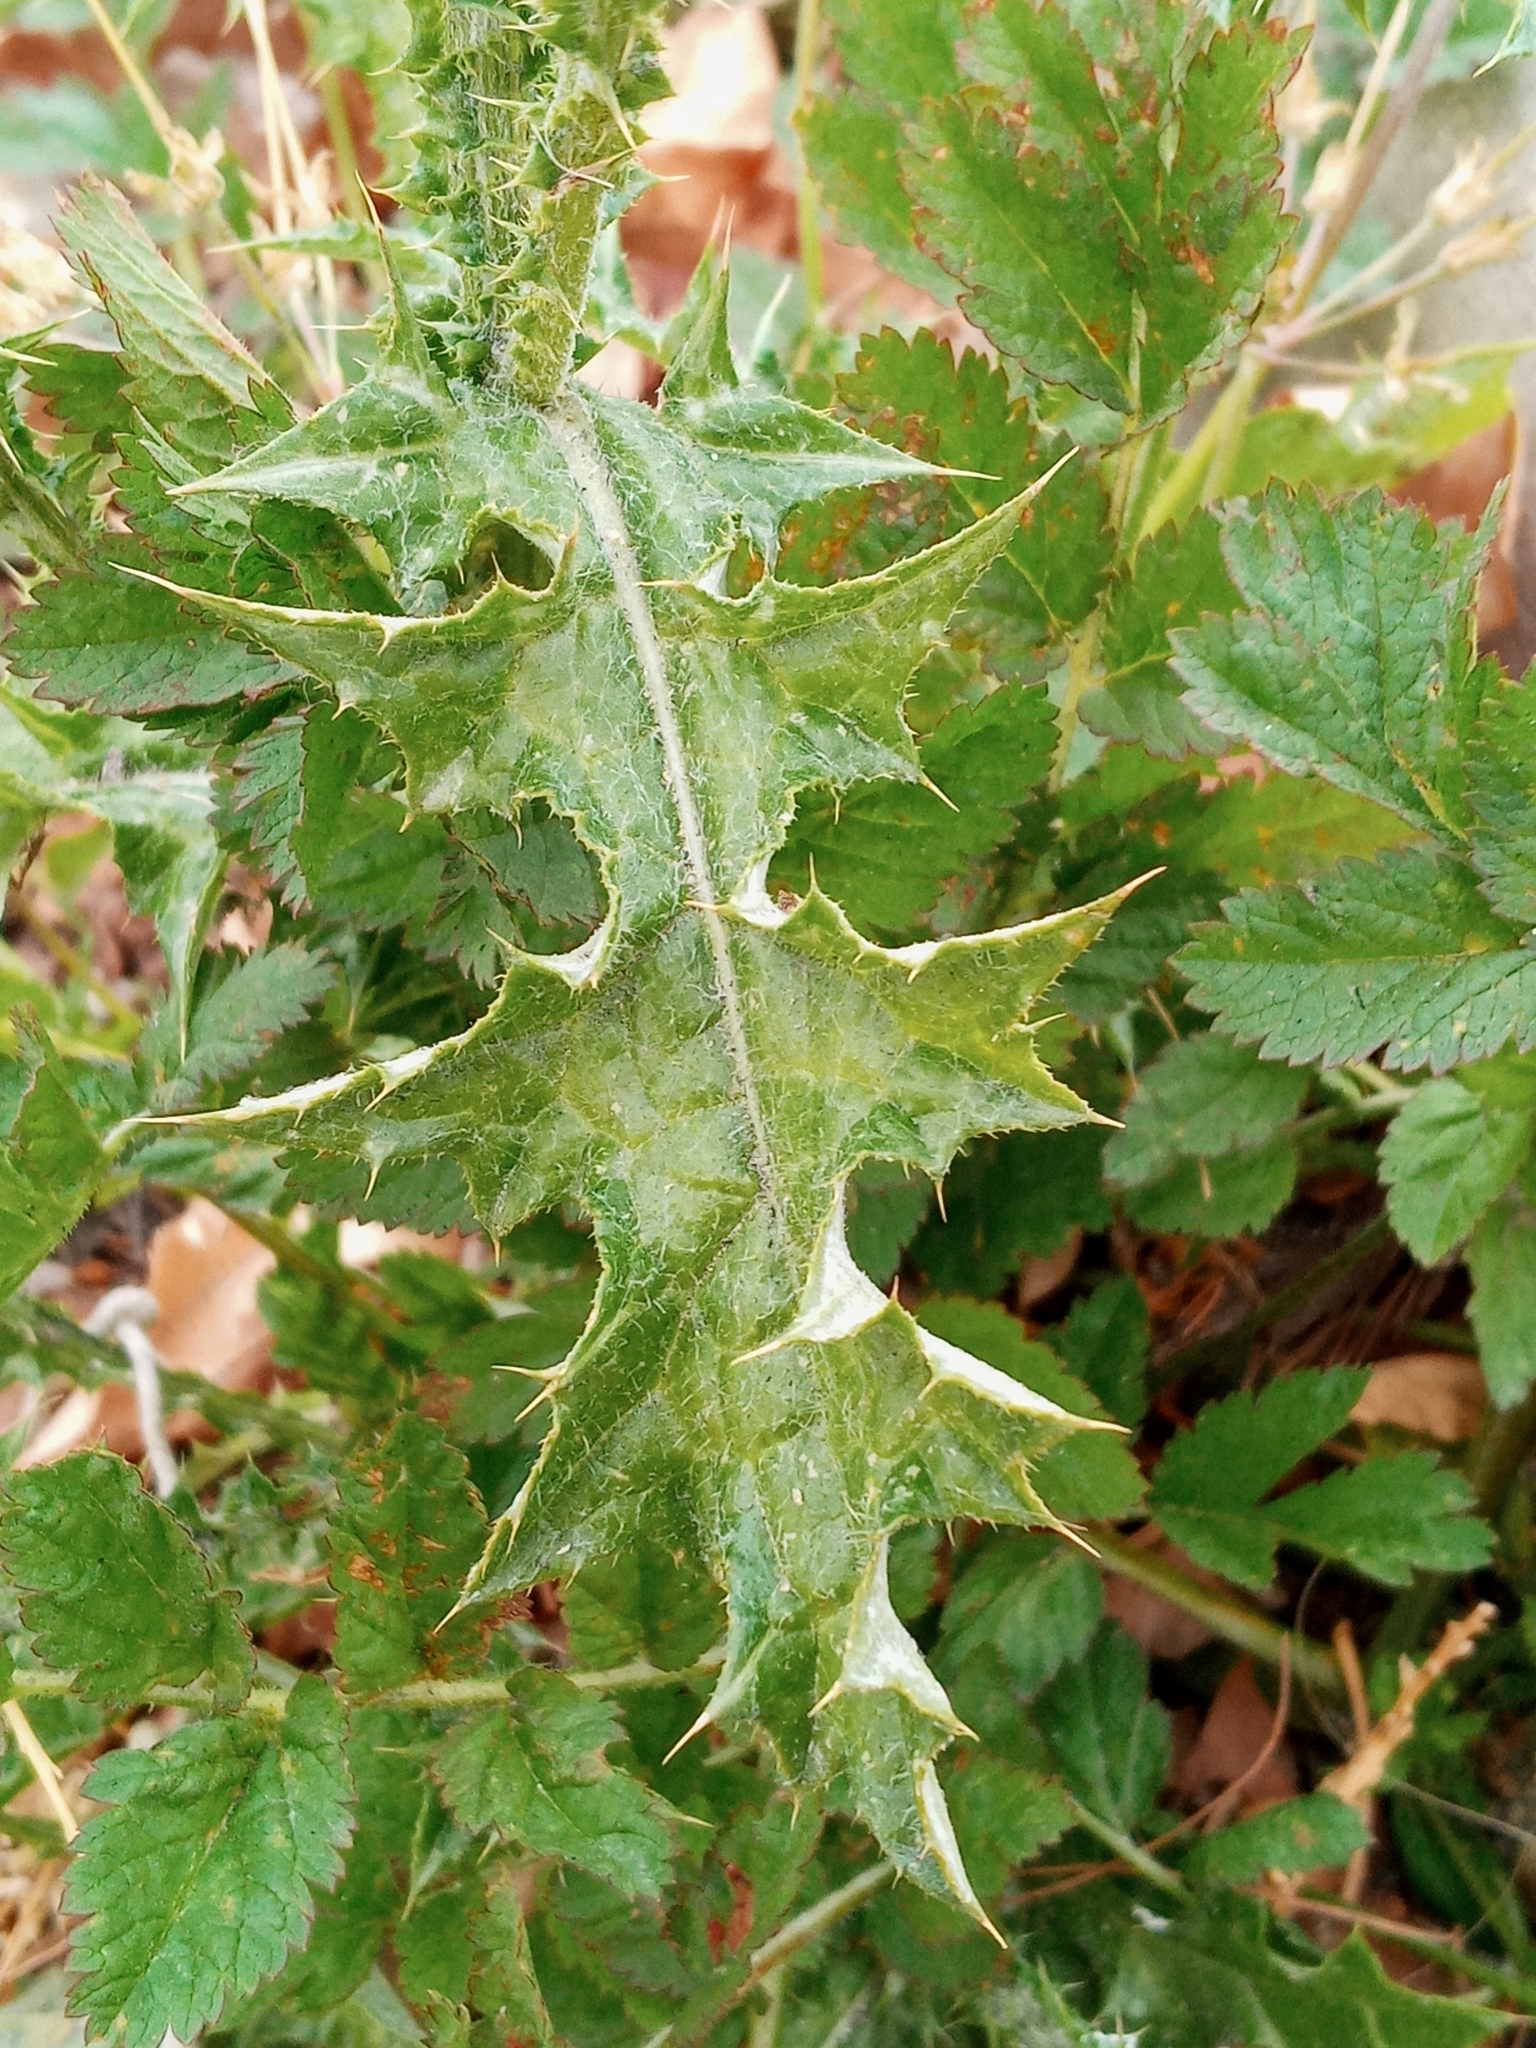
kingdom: Plantae
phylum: Tracheophyta
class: Magnoliopsida
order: Asterales
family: Asteraceae
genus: Carduus
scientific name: Carduus pycnocephalus
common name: Plymouth thistle
